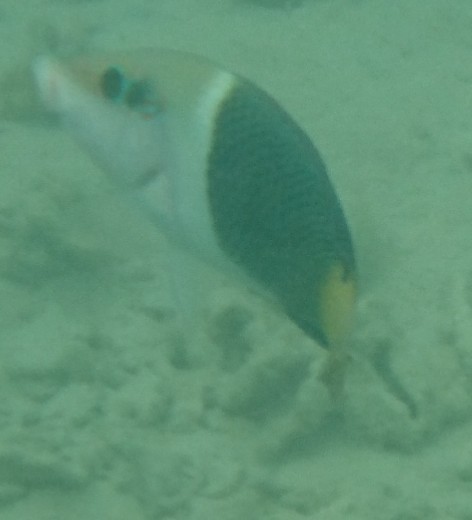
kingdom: Animalia
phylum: Chordata
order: Perciformes
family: Labridae
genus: Hemigymnus
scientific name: Hemigymnus melapterus
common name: Blackeye thicklip
